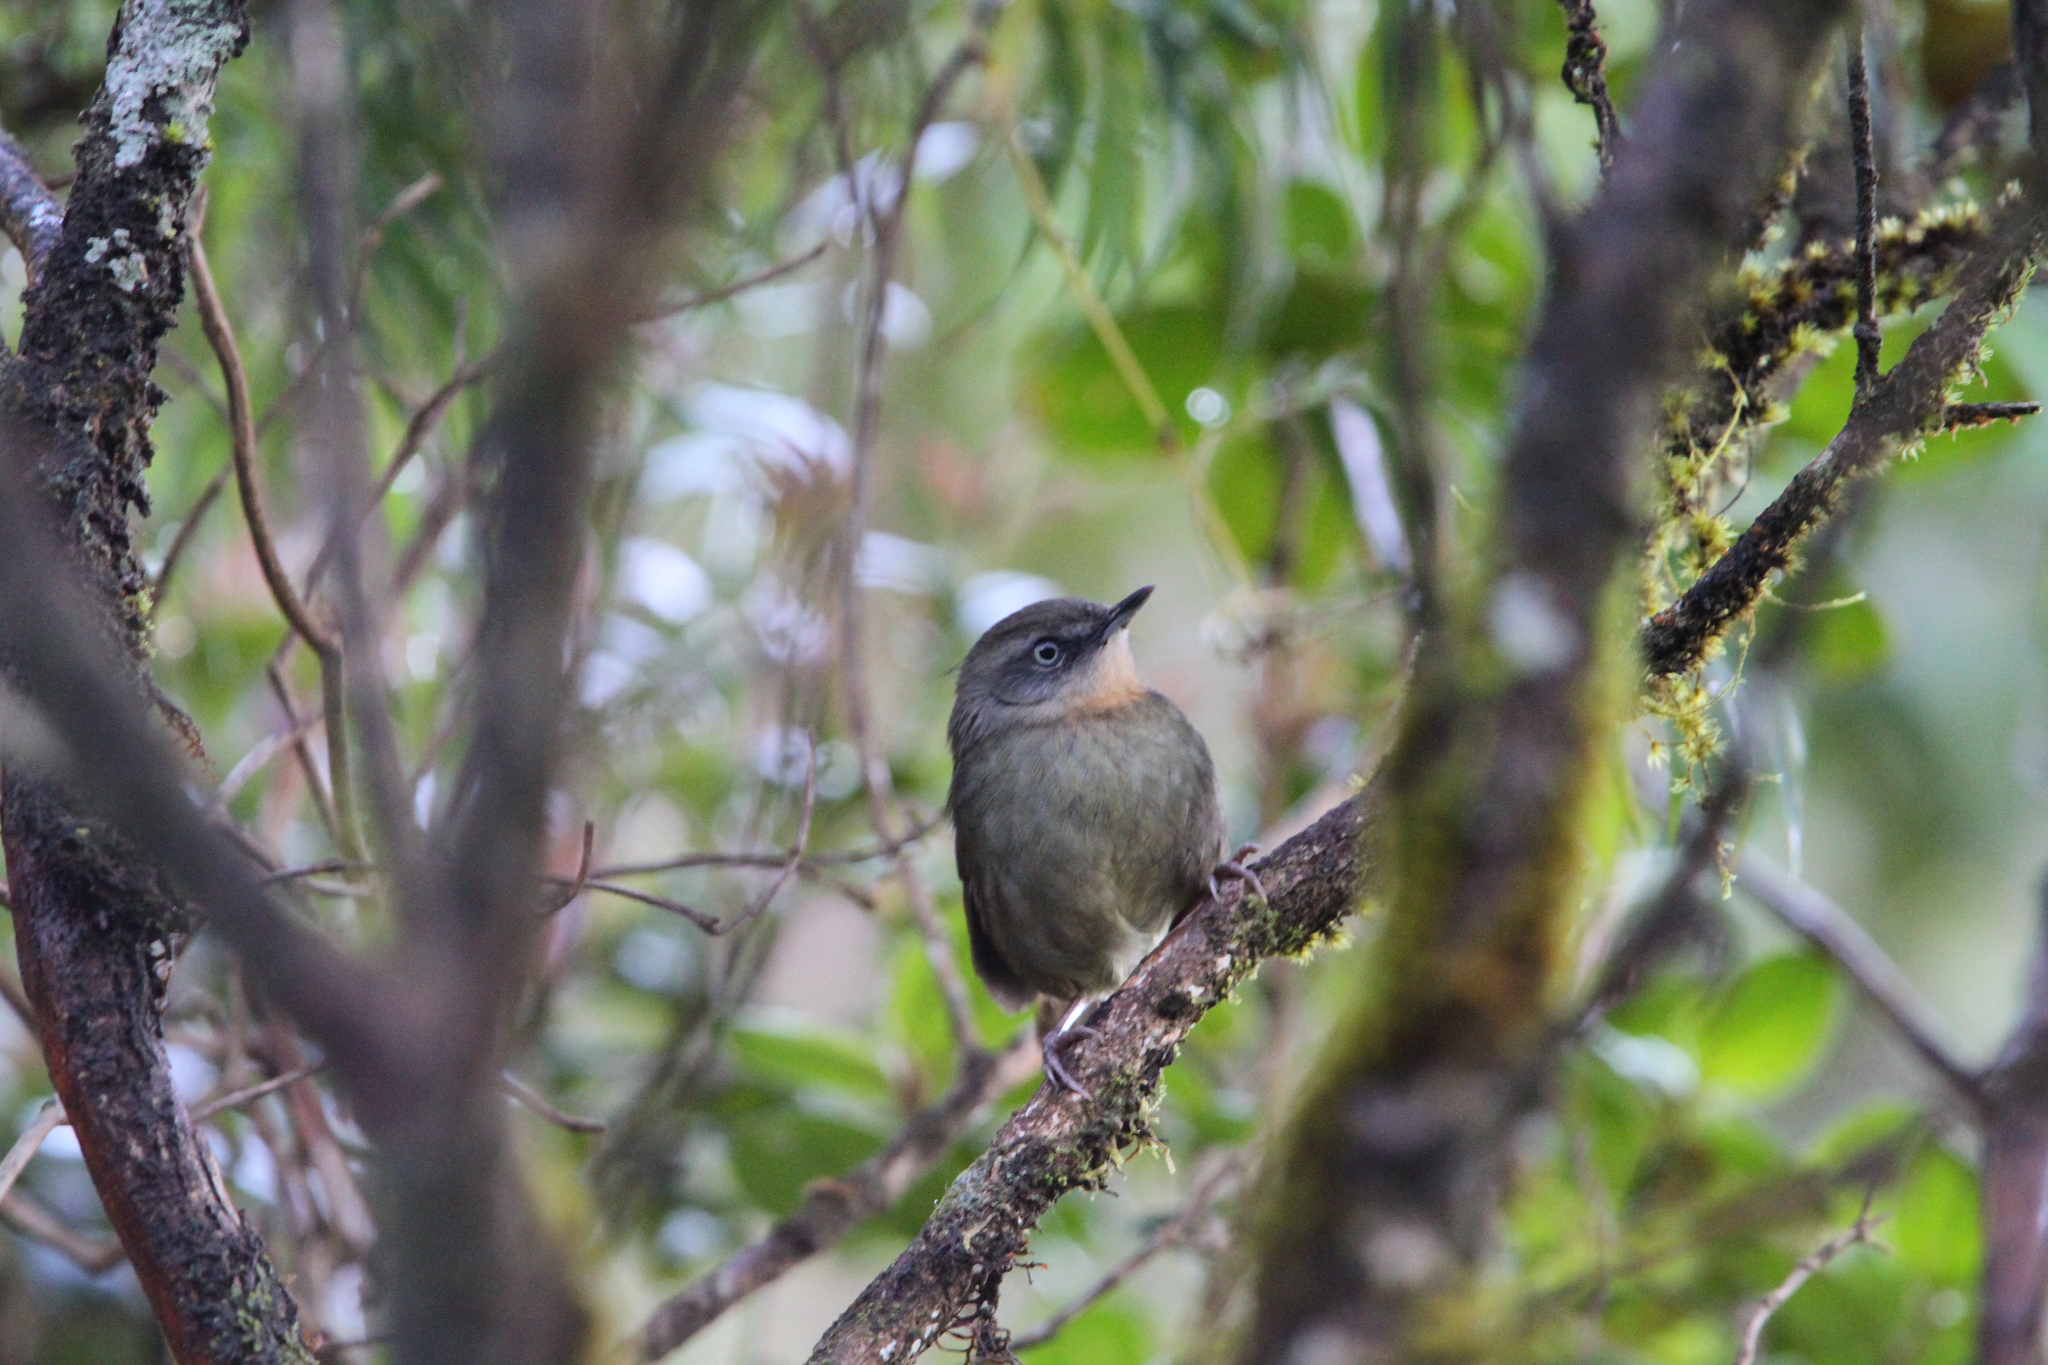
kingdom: Animalia
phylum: Chordata
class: Aves
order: Passeriformes
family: Locustellidae
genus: Elaphrornis
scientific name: Elaphrornis palliseri
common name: Sri lanka bush warbler
